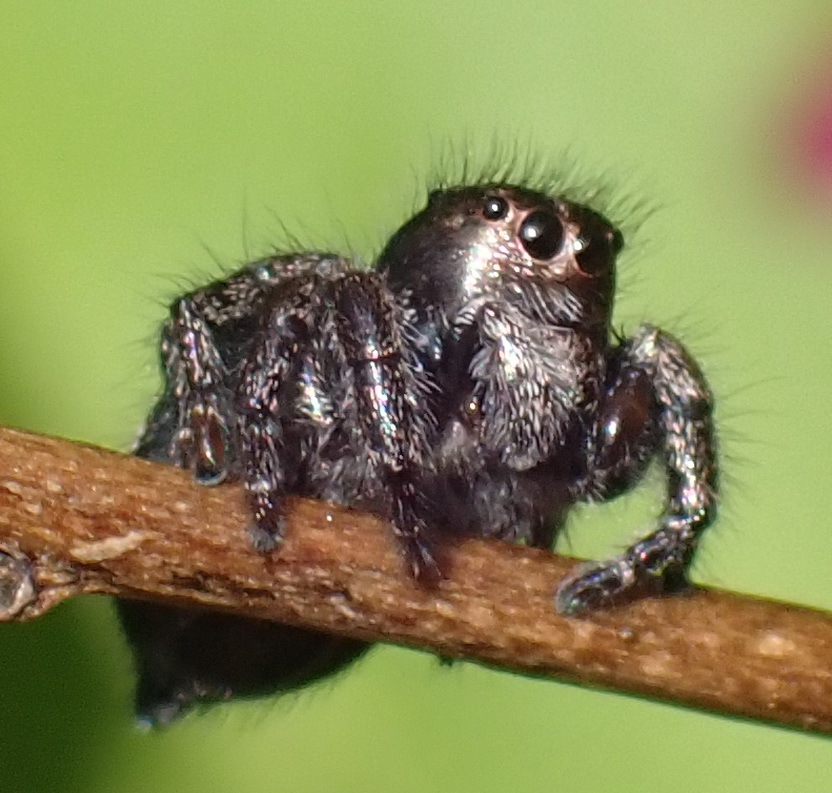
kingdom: Animalia
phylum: Arthropoda
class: Arachnida
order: Araneae
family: Salticidae
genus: Baryphas
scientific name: Baryphas ahenus
